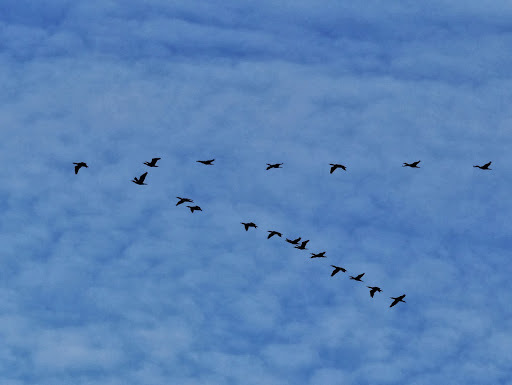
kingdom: Animalia
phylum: Chordata
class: Aves
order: Suliformes
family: Phalacrocoracidae
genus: Phalacrocorax
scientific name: Phalacrocorax carbo
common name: Great cormorant
